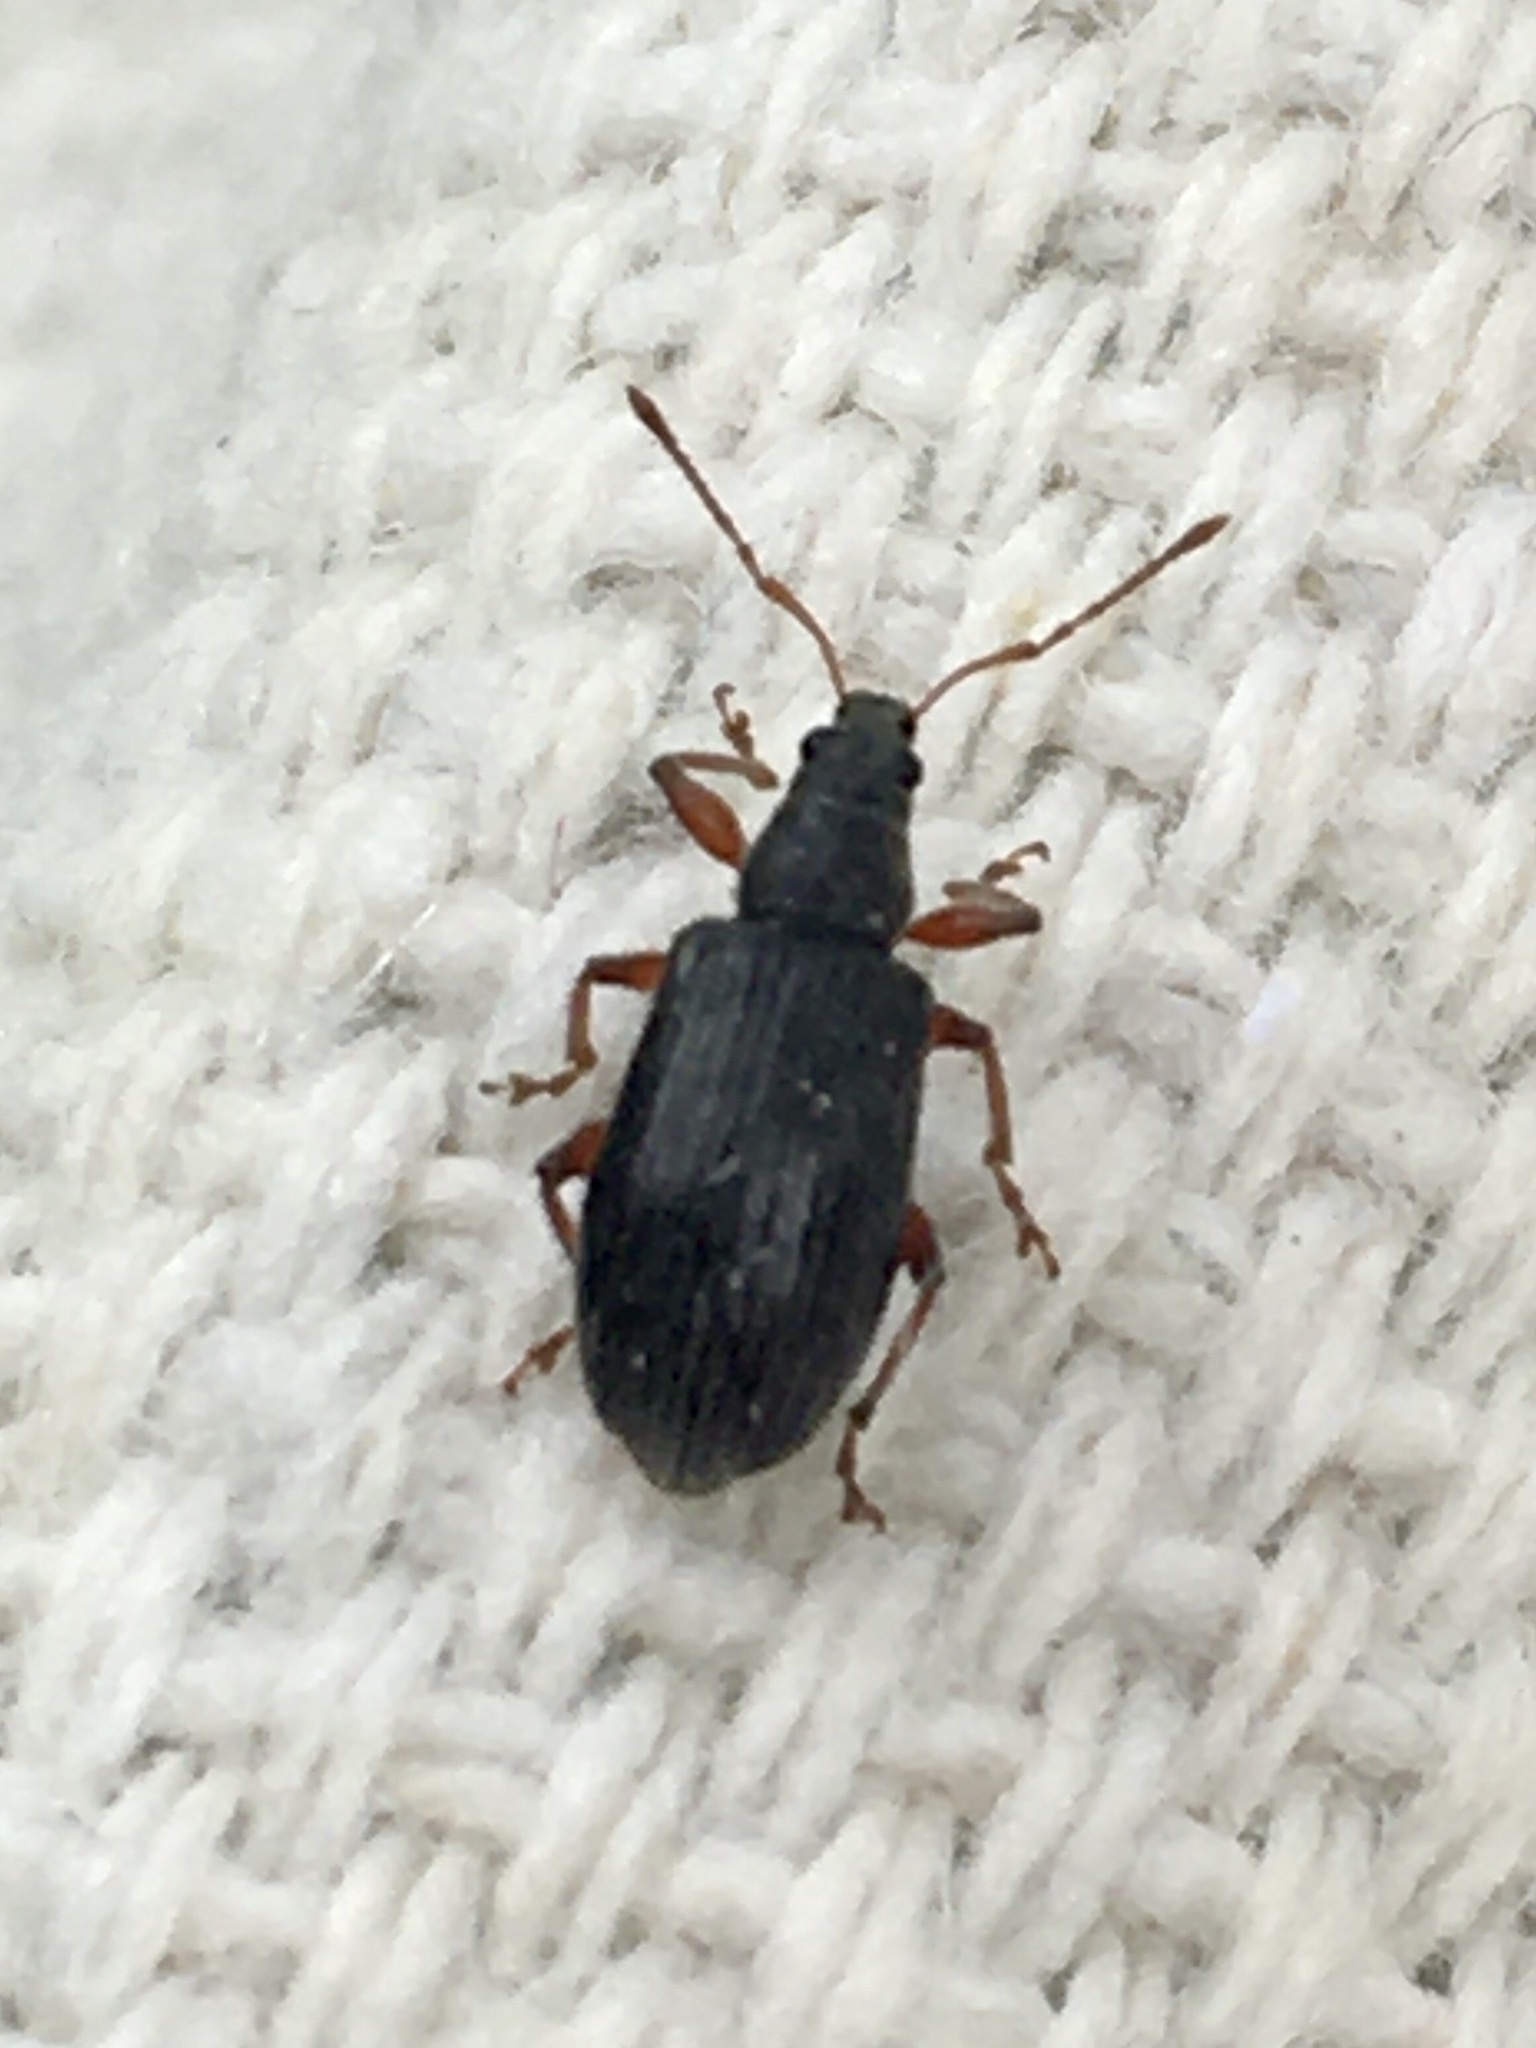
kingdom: Animalia
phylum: Arthropoda
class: Insecta
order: Coleoptera
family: Curculionidae
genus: Phyllobius
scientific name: Phyllobius oblongus
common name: Brown leaf weevil
